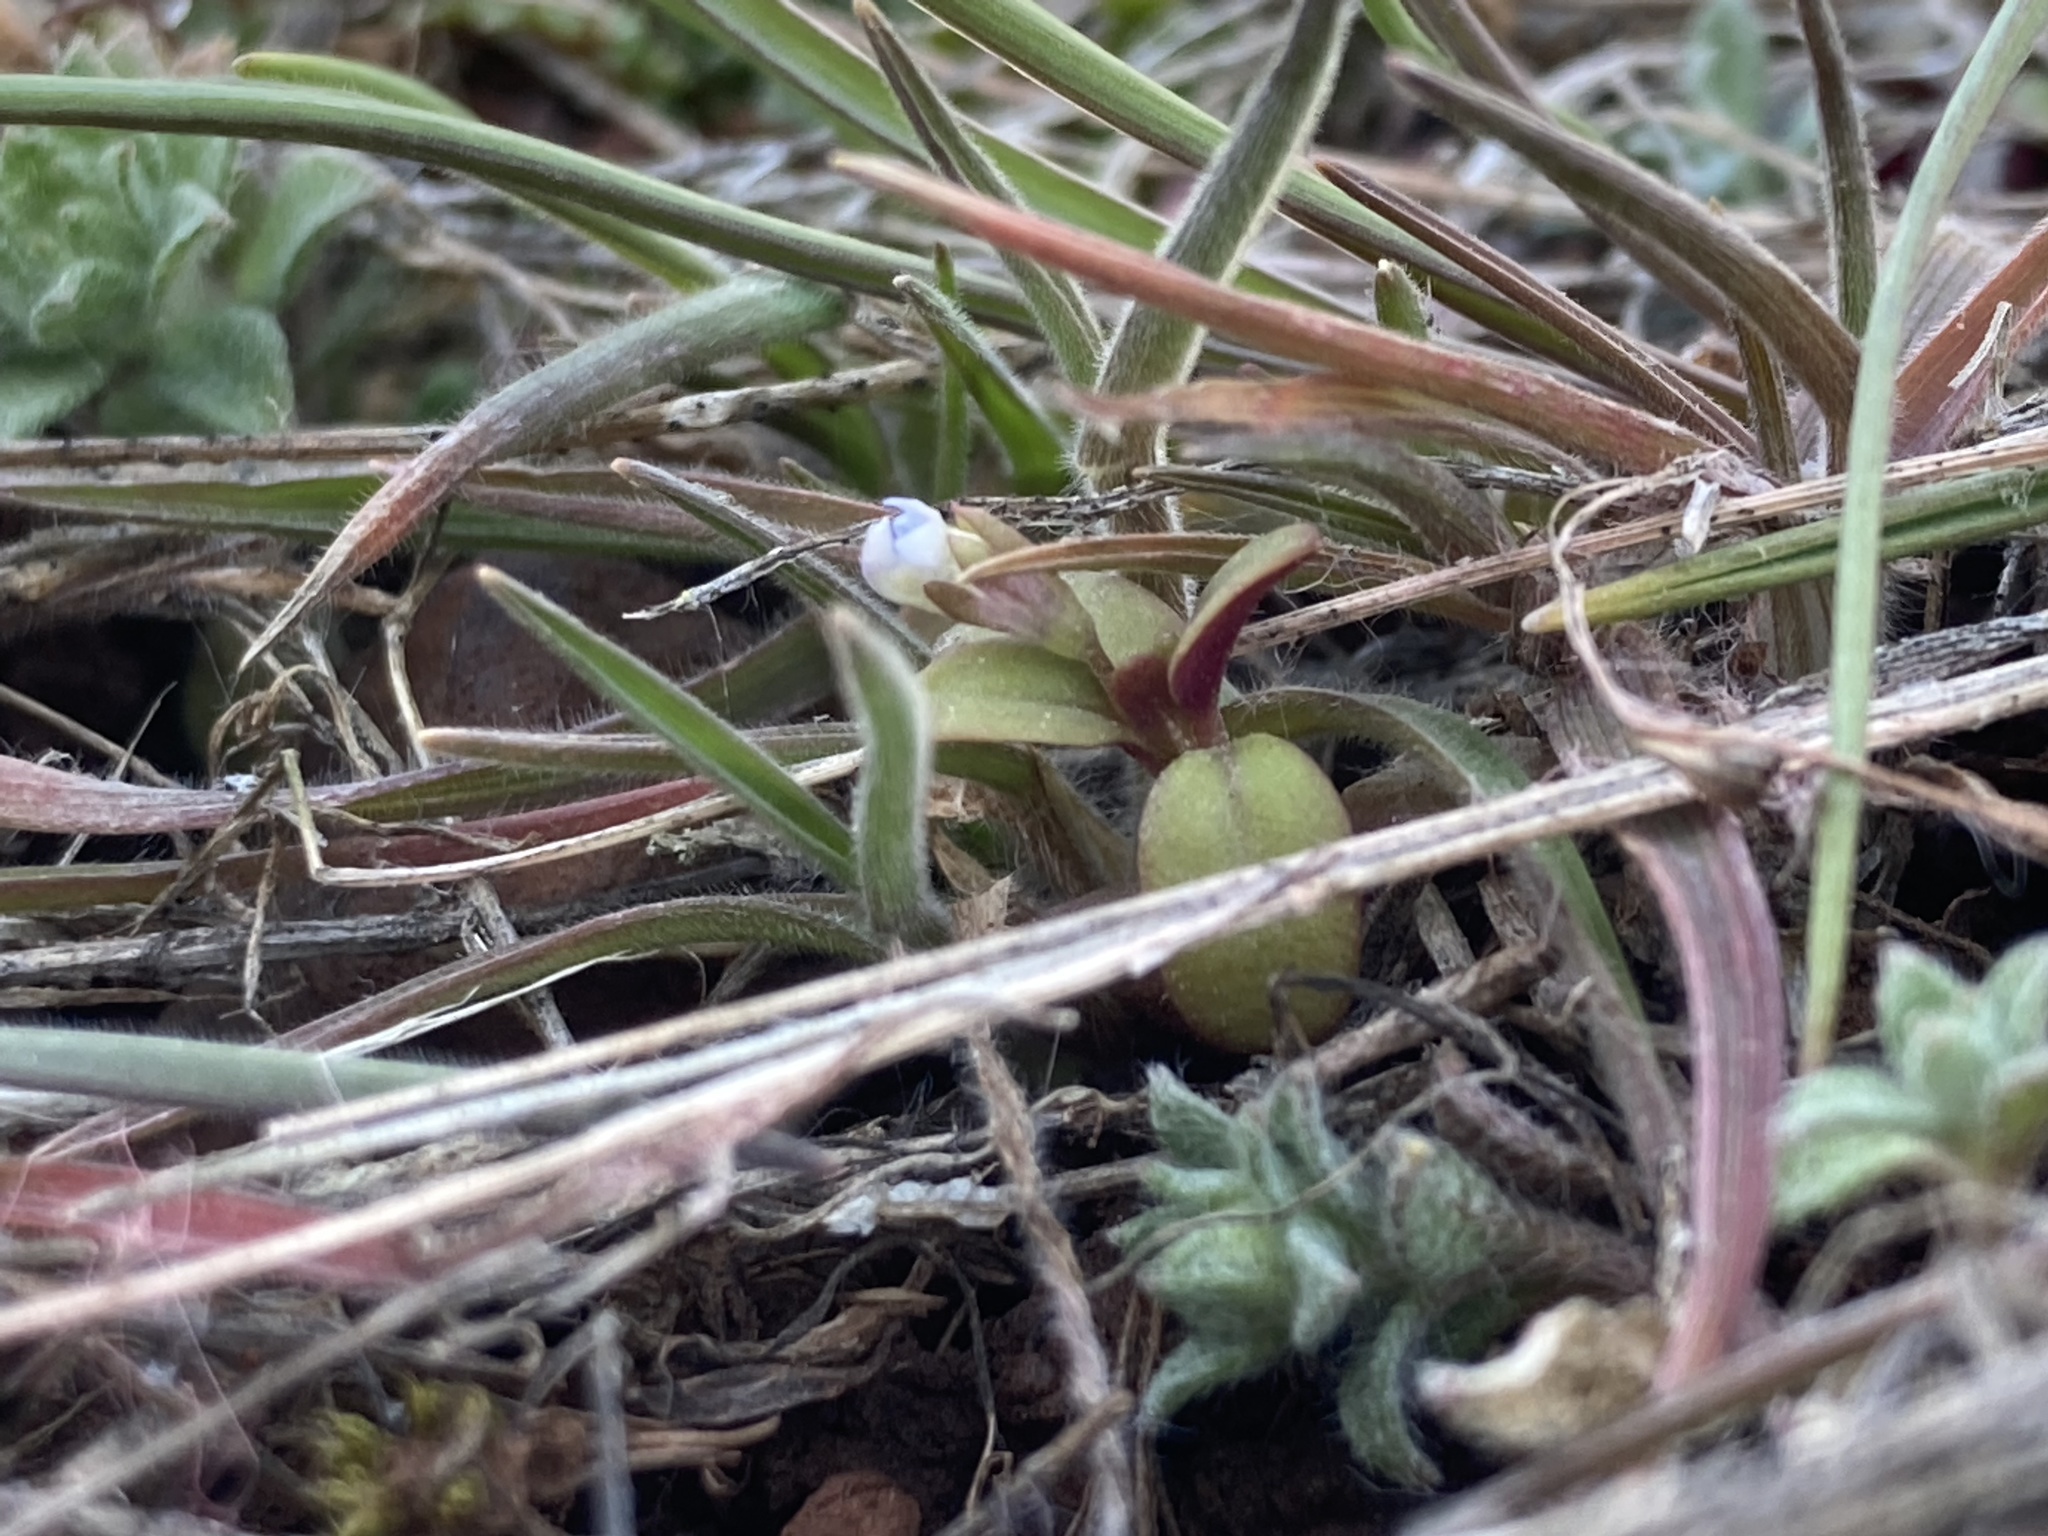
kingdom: Plantae
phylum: Tracheophyta
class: Magnoliopsida
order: Lamiales
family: Plantaginaceae
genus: Collinsia
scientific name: Collinsia parviflora
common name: Blue-lips
